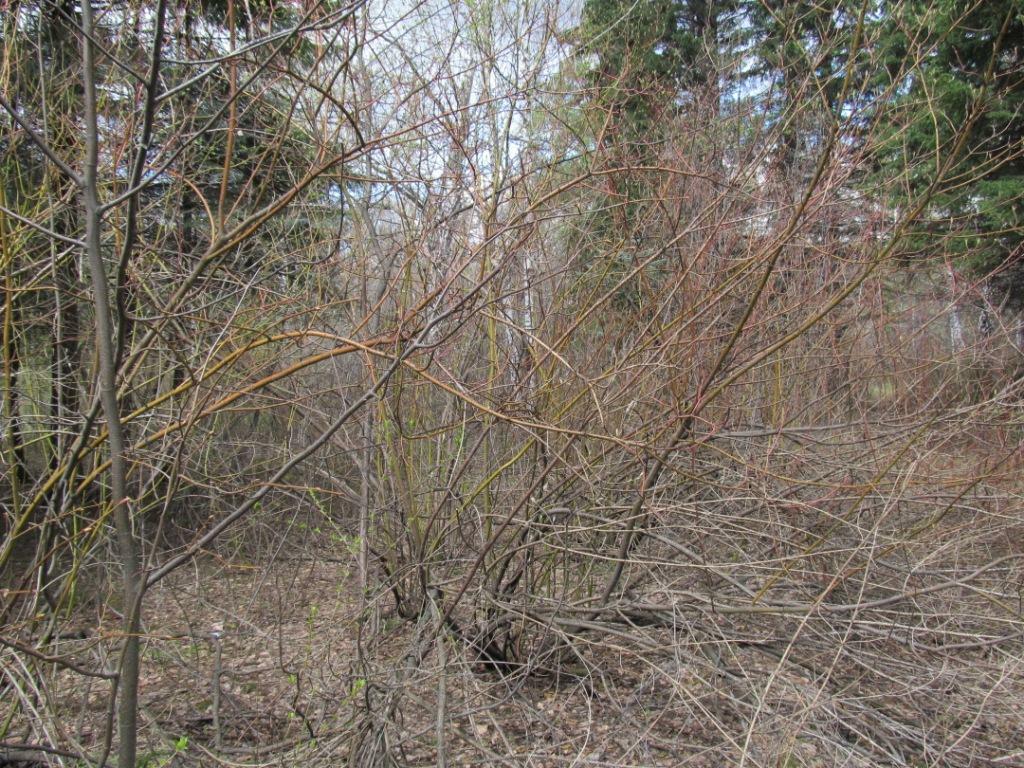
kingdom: Plantae
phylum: Tracheophyta
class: Magnoliopsida
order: Cornales
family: Cornaceae
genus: Cornus
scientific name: Cornus alba
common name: White dogwood
